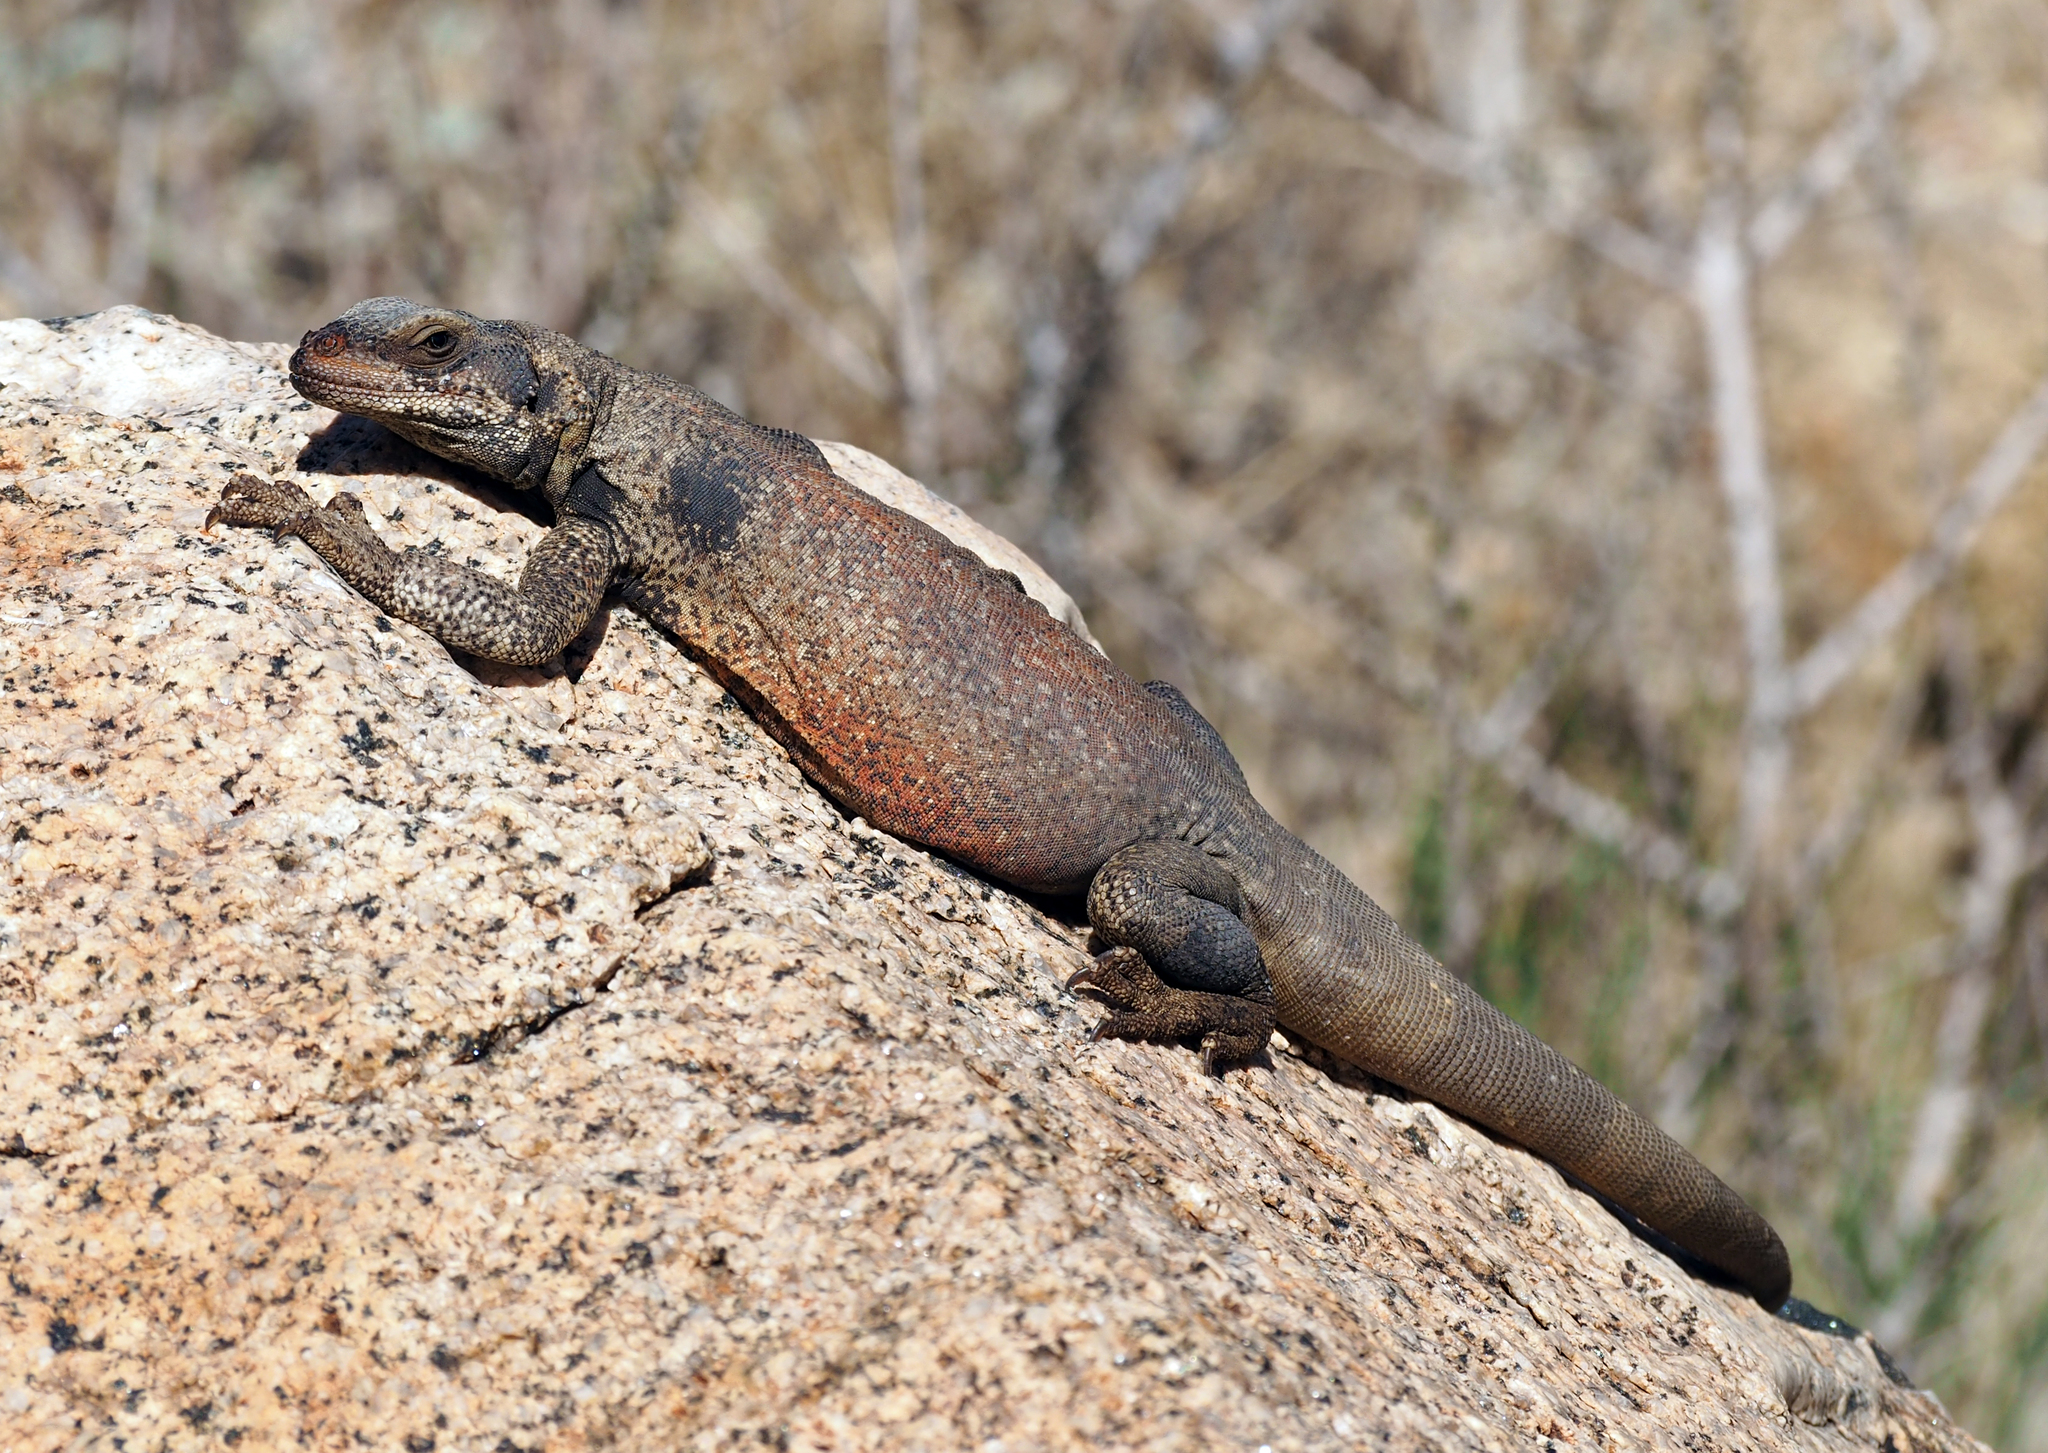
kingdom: Animalia
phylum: Chordata
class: Squamata
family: Iguanidae
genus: Sauromalus
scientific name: Sauromalus ater
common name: Northern chuckwalla
